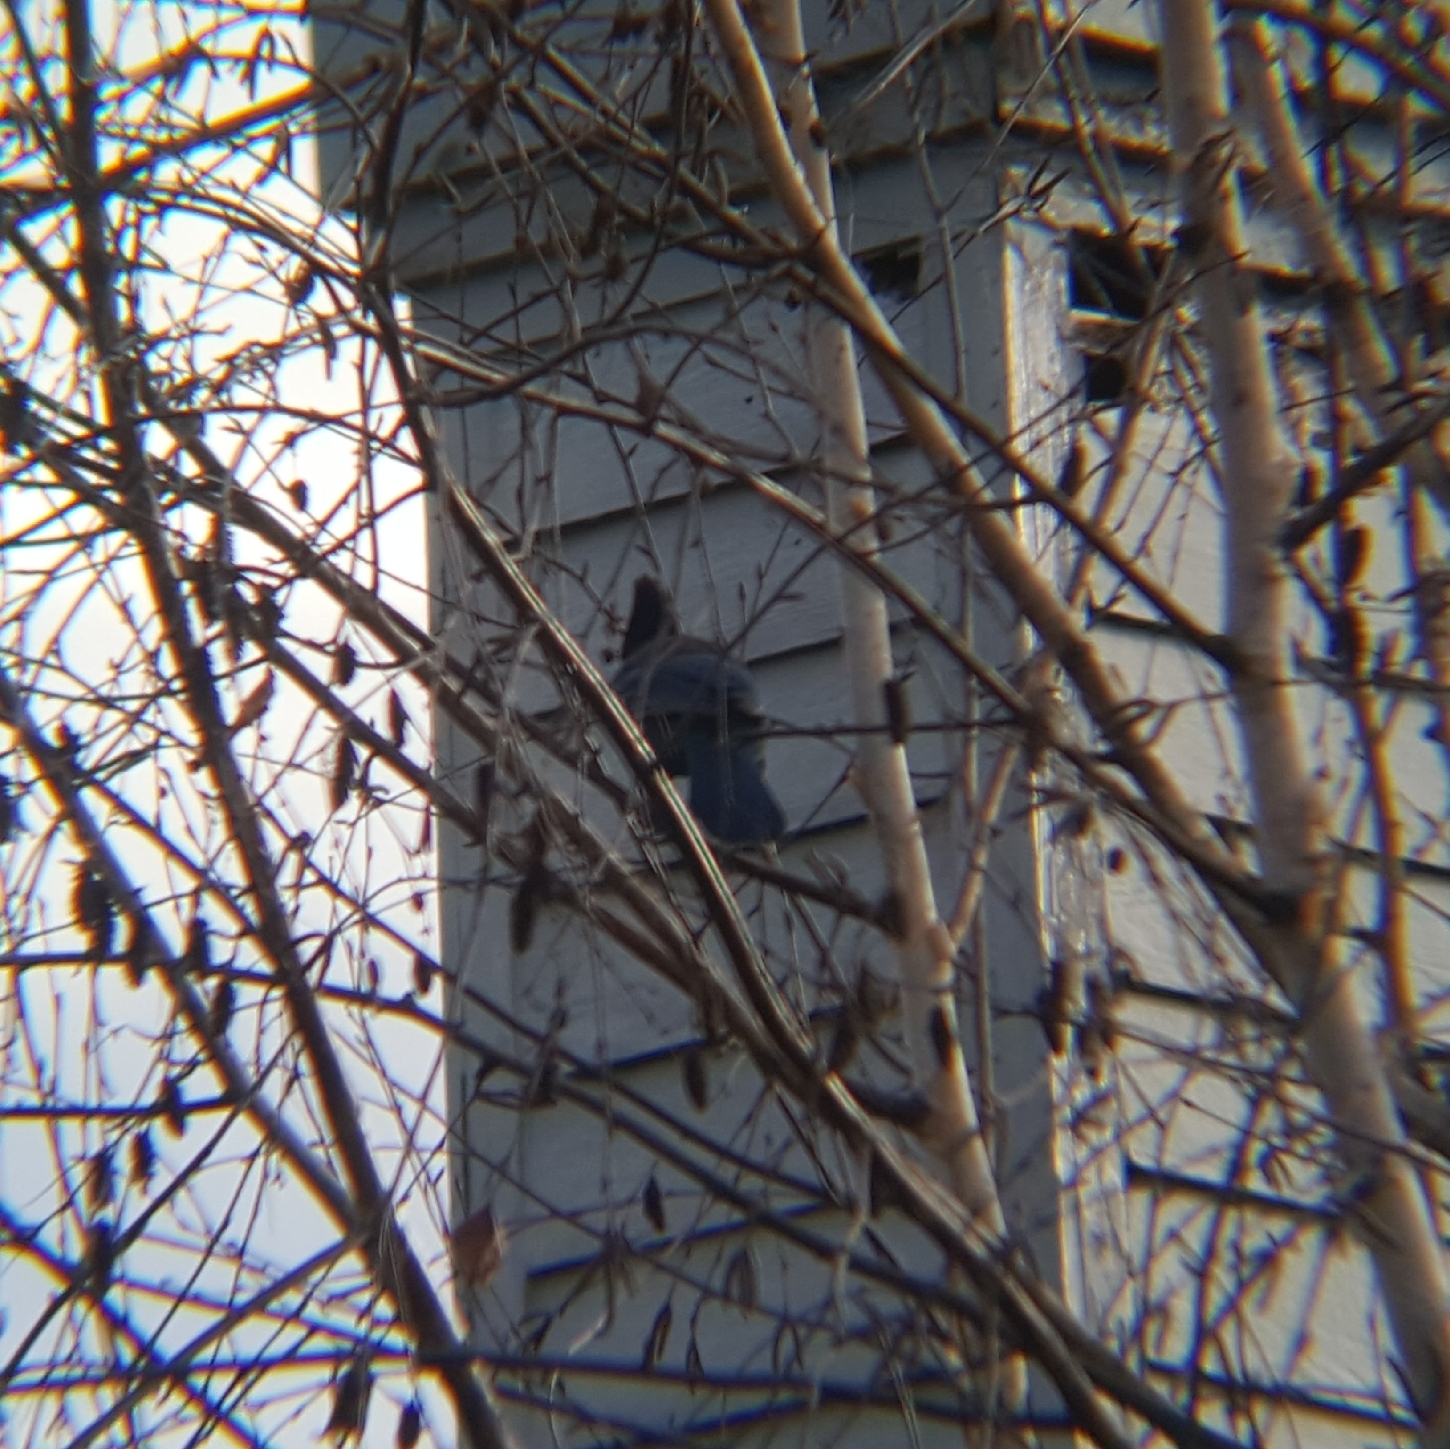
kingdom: Animalia
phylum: Chordata
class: Aves
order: Passeriformes
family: Corvidae
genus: Cyanocitta
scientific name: Cyanocitta stelleri
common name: Steller's jay
